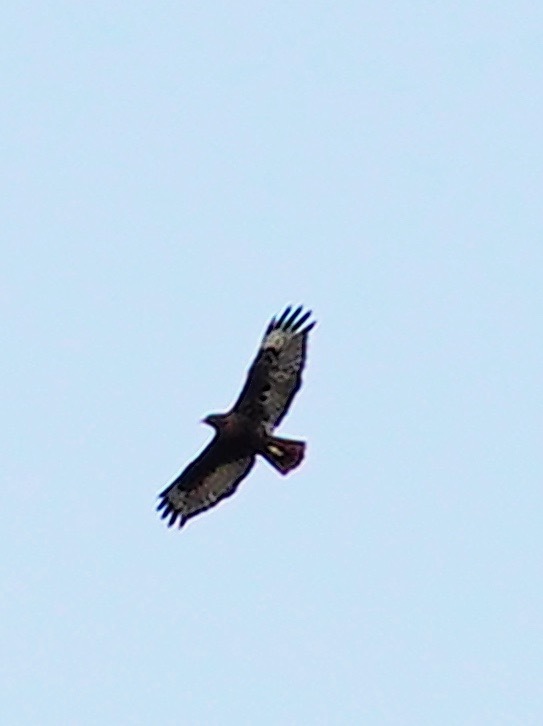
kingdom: Animalia
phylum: Chordata
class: Aves
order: Accipitriformes
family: Accipitridae
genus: Buteo
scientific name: Buteo jamaicensis
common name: Red-tailed hawk
